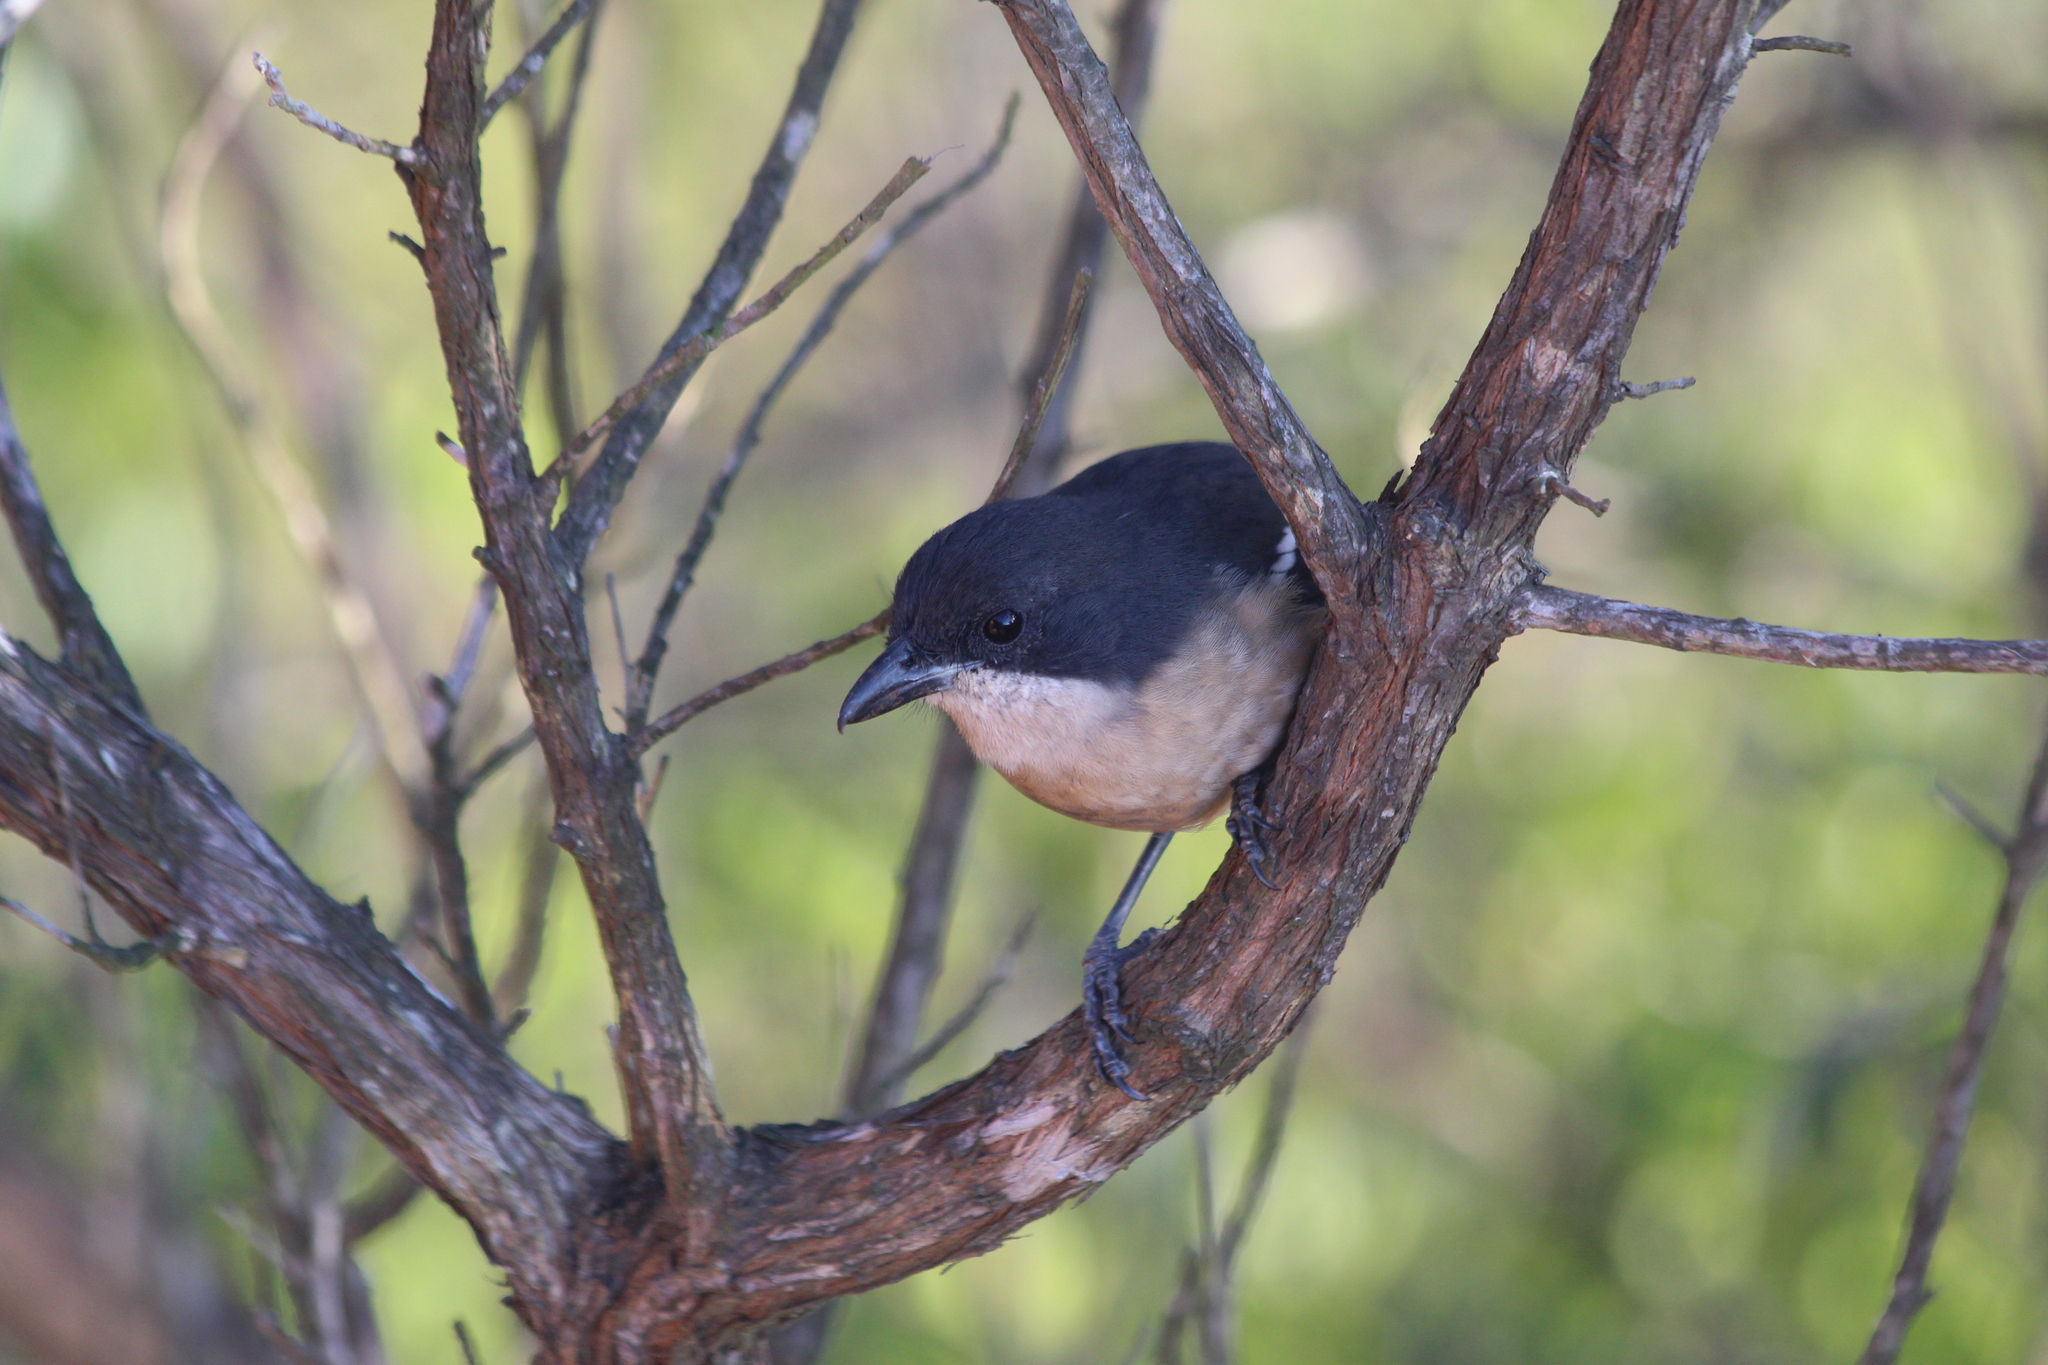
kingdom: Animalia
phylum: Chordata
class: Aves
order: Passeriformes
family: Malaconotidae
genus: Laniarius
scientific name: Laniarius ferrugineus
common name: Southern boubou
